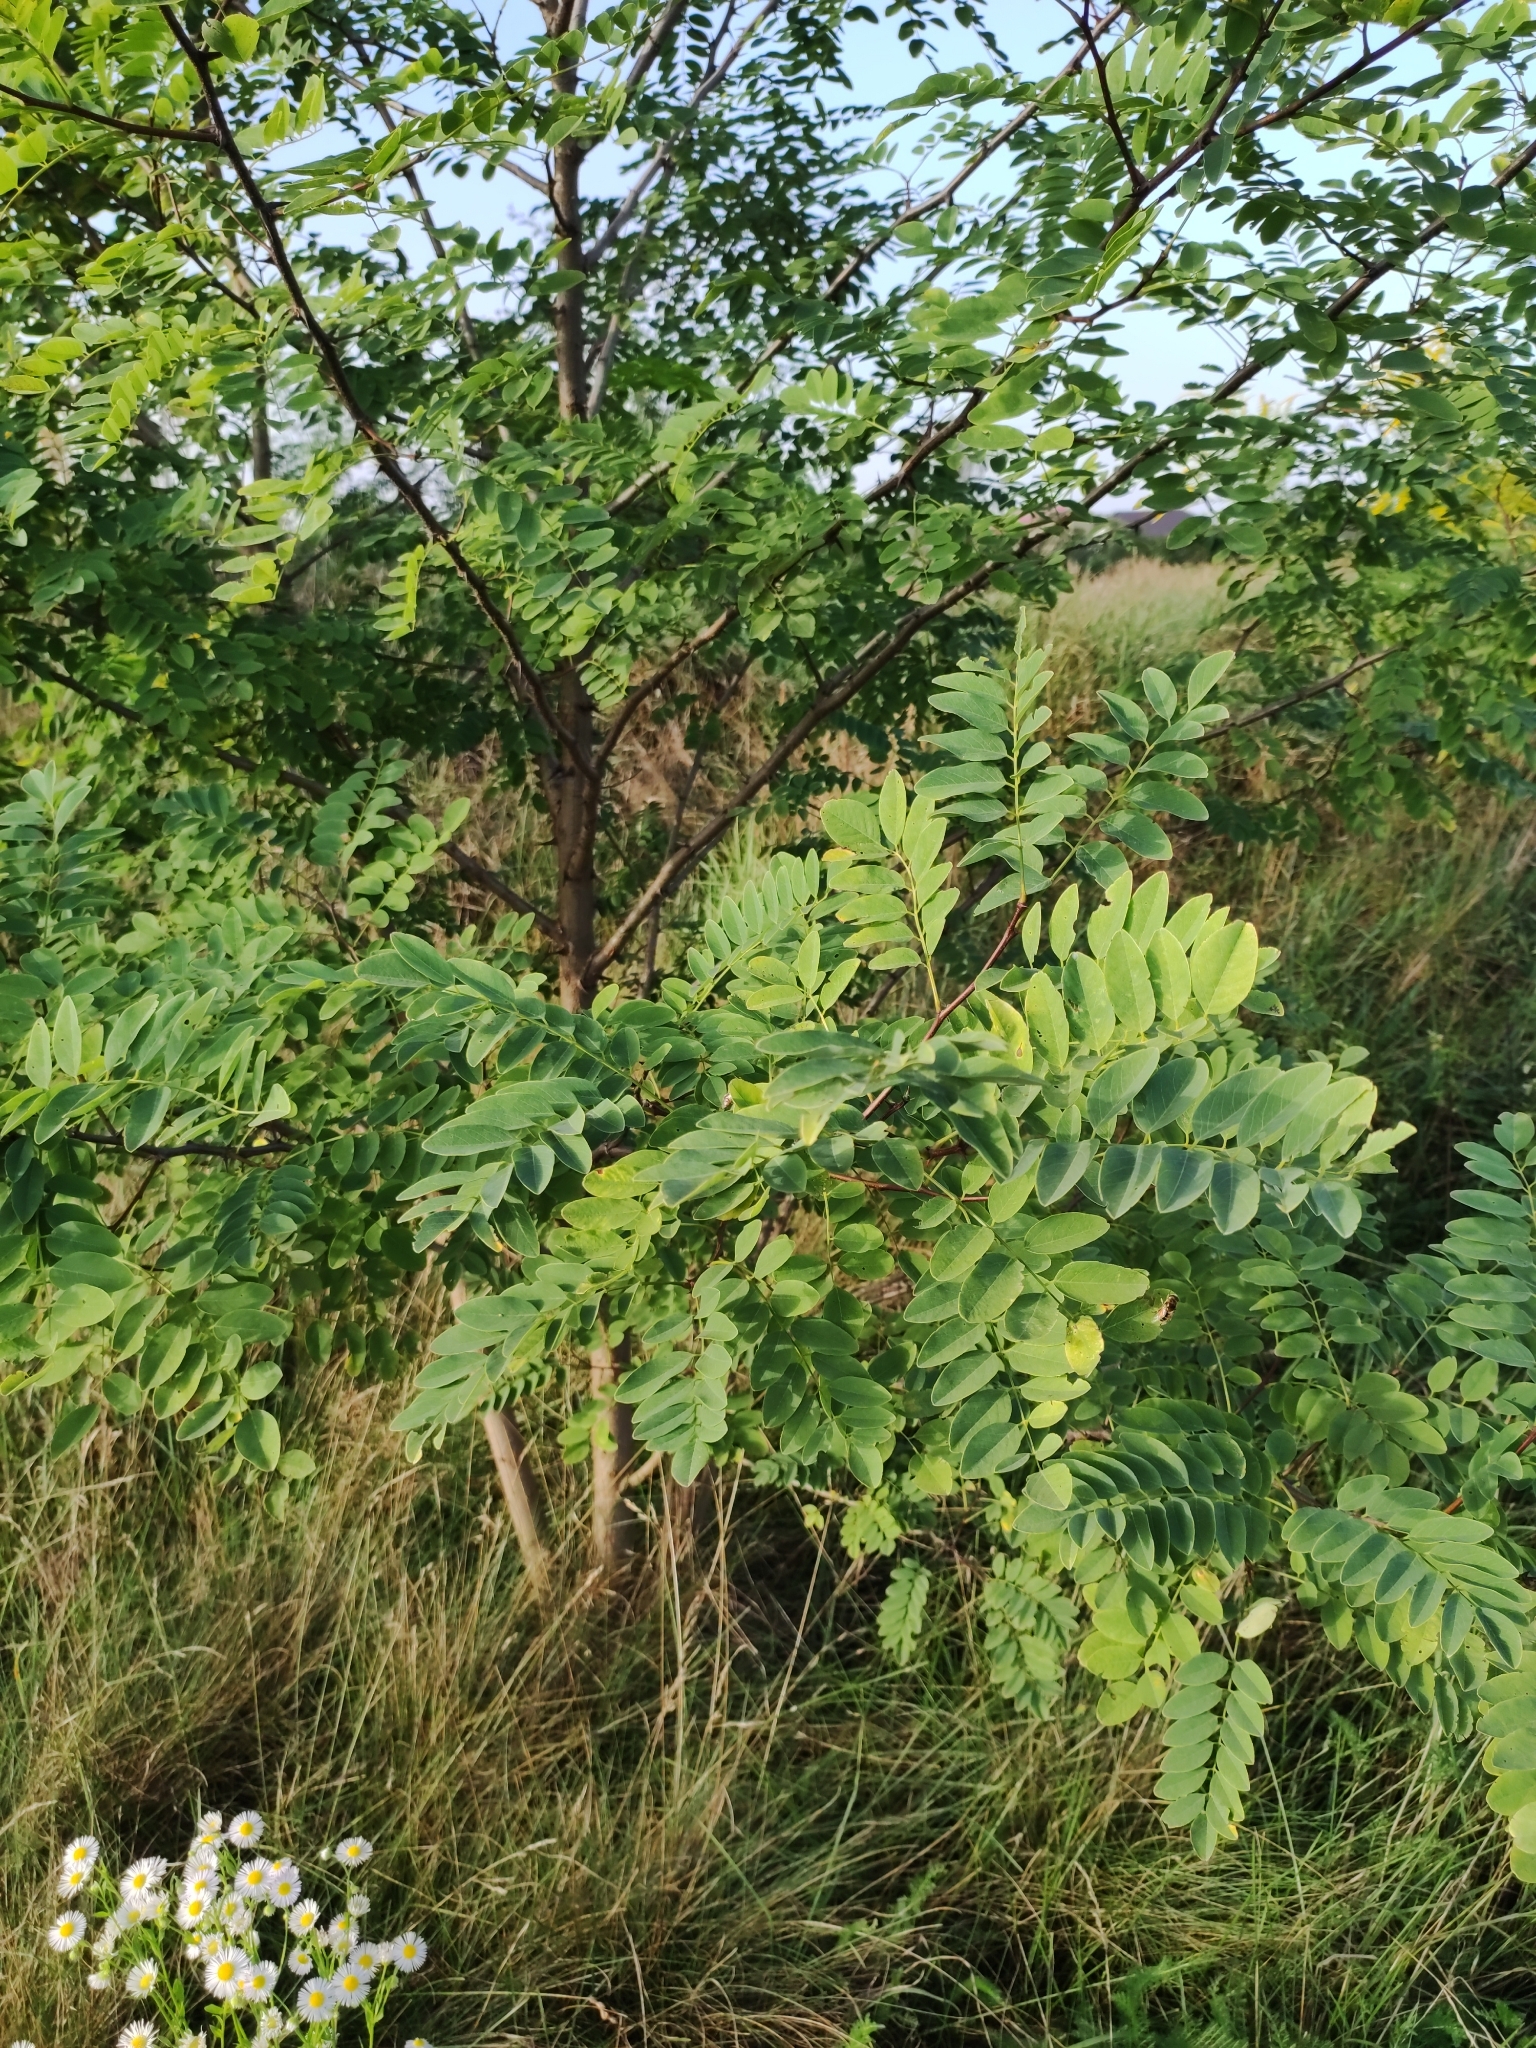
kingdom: Plantae
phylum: Tracheophyta
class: Magnoliopsida
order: Fabales
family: Fabaceae
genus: Robinia
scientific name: Robinia pseudoacacia
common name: Black locust
